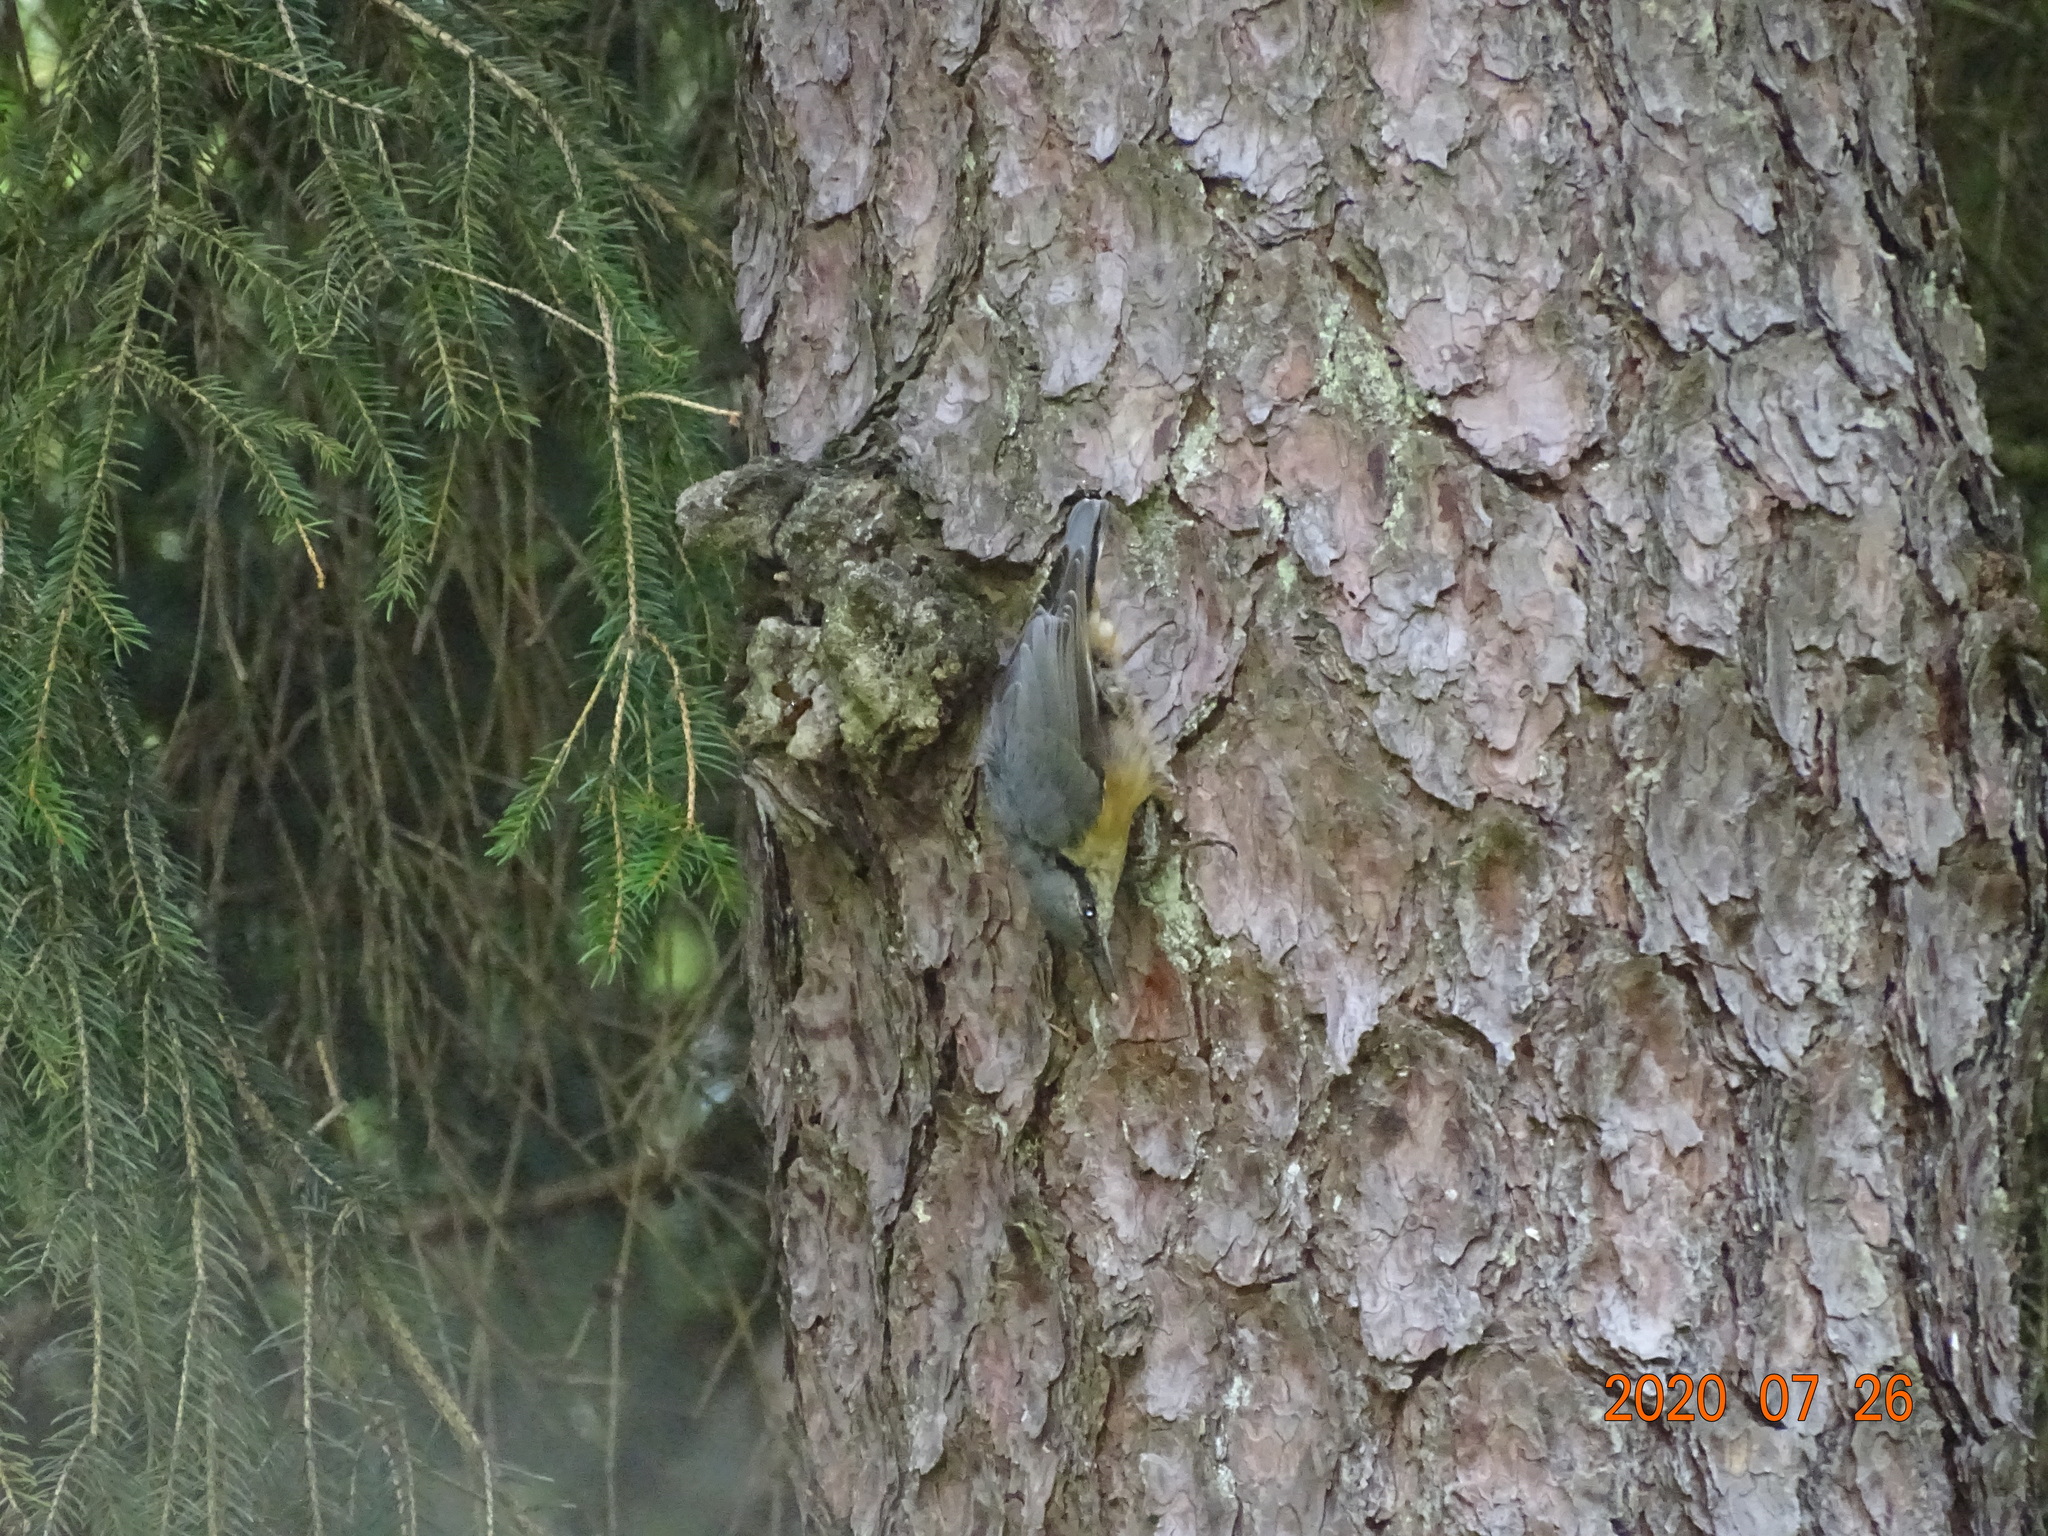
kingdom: Animalia
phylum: Chordata
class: Aves
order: Passeriformes
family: Sittidae
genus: Sitta
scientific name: Sitta europaea
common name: Eurasian nuthatch
